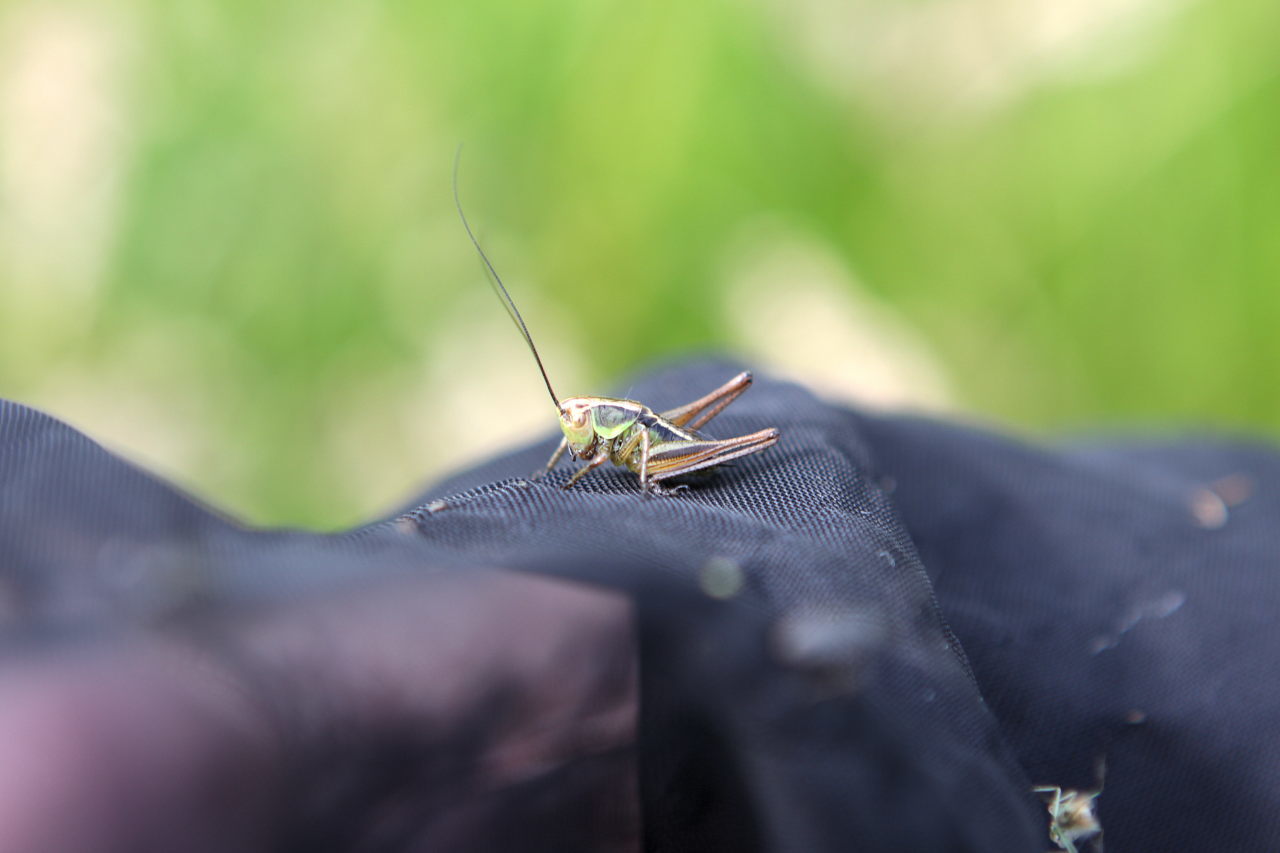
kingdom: Animalia
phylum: Arthropoda
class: Insecta
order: Orthoptera
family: Tettigoniidae
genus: Roeseliana
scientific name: Roeseliana roeselii
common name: Roesel's bush cricket
